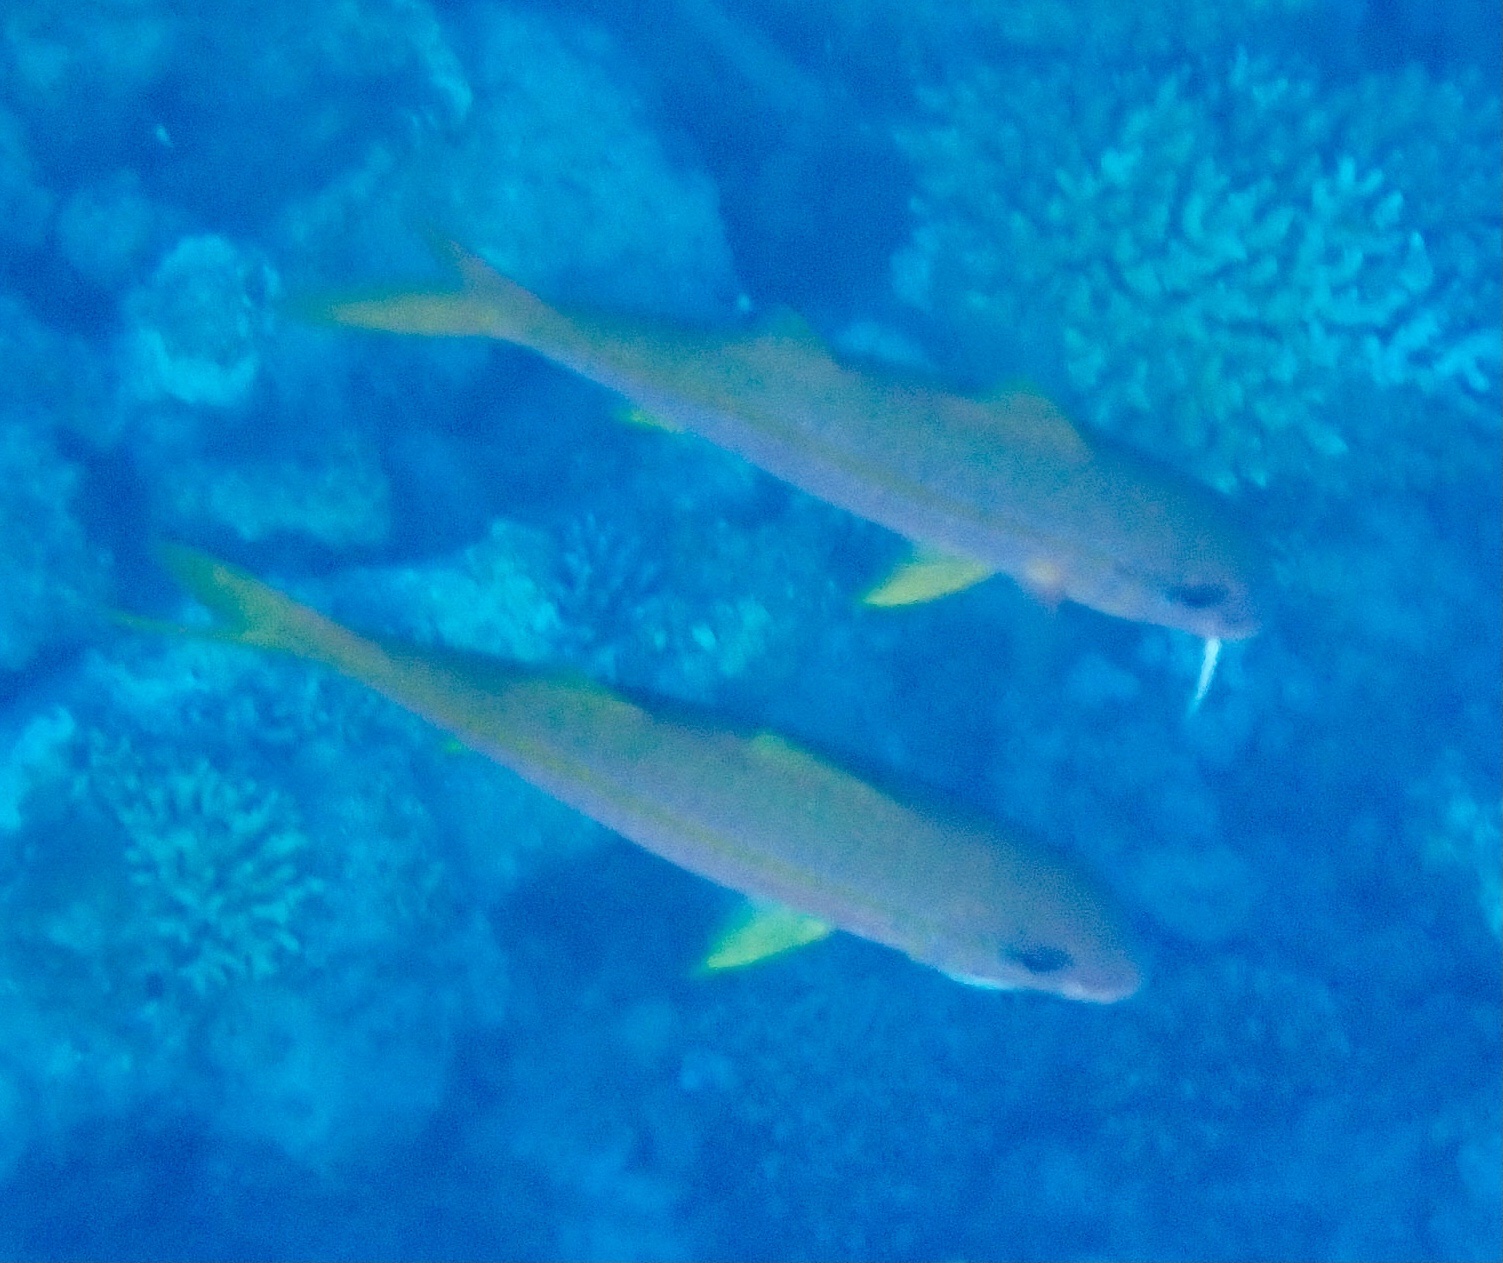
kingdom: Animalia
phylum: Chordata
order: Perciformes
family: Mullidae
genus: Mulloidichthys
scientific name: Mulloidichthys vanicolensis
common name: Yellowfin goatfish
